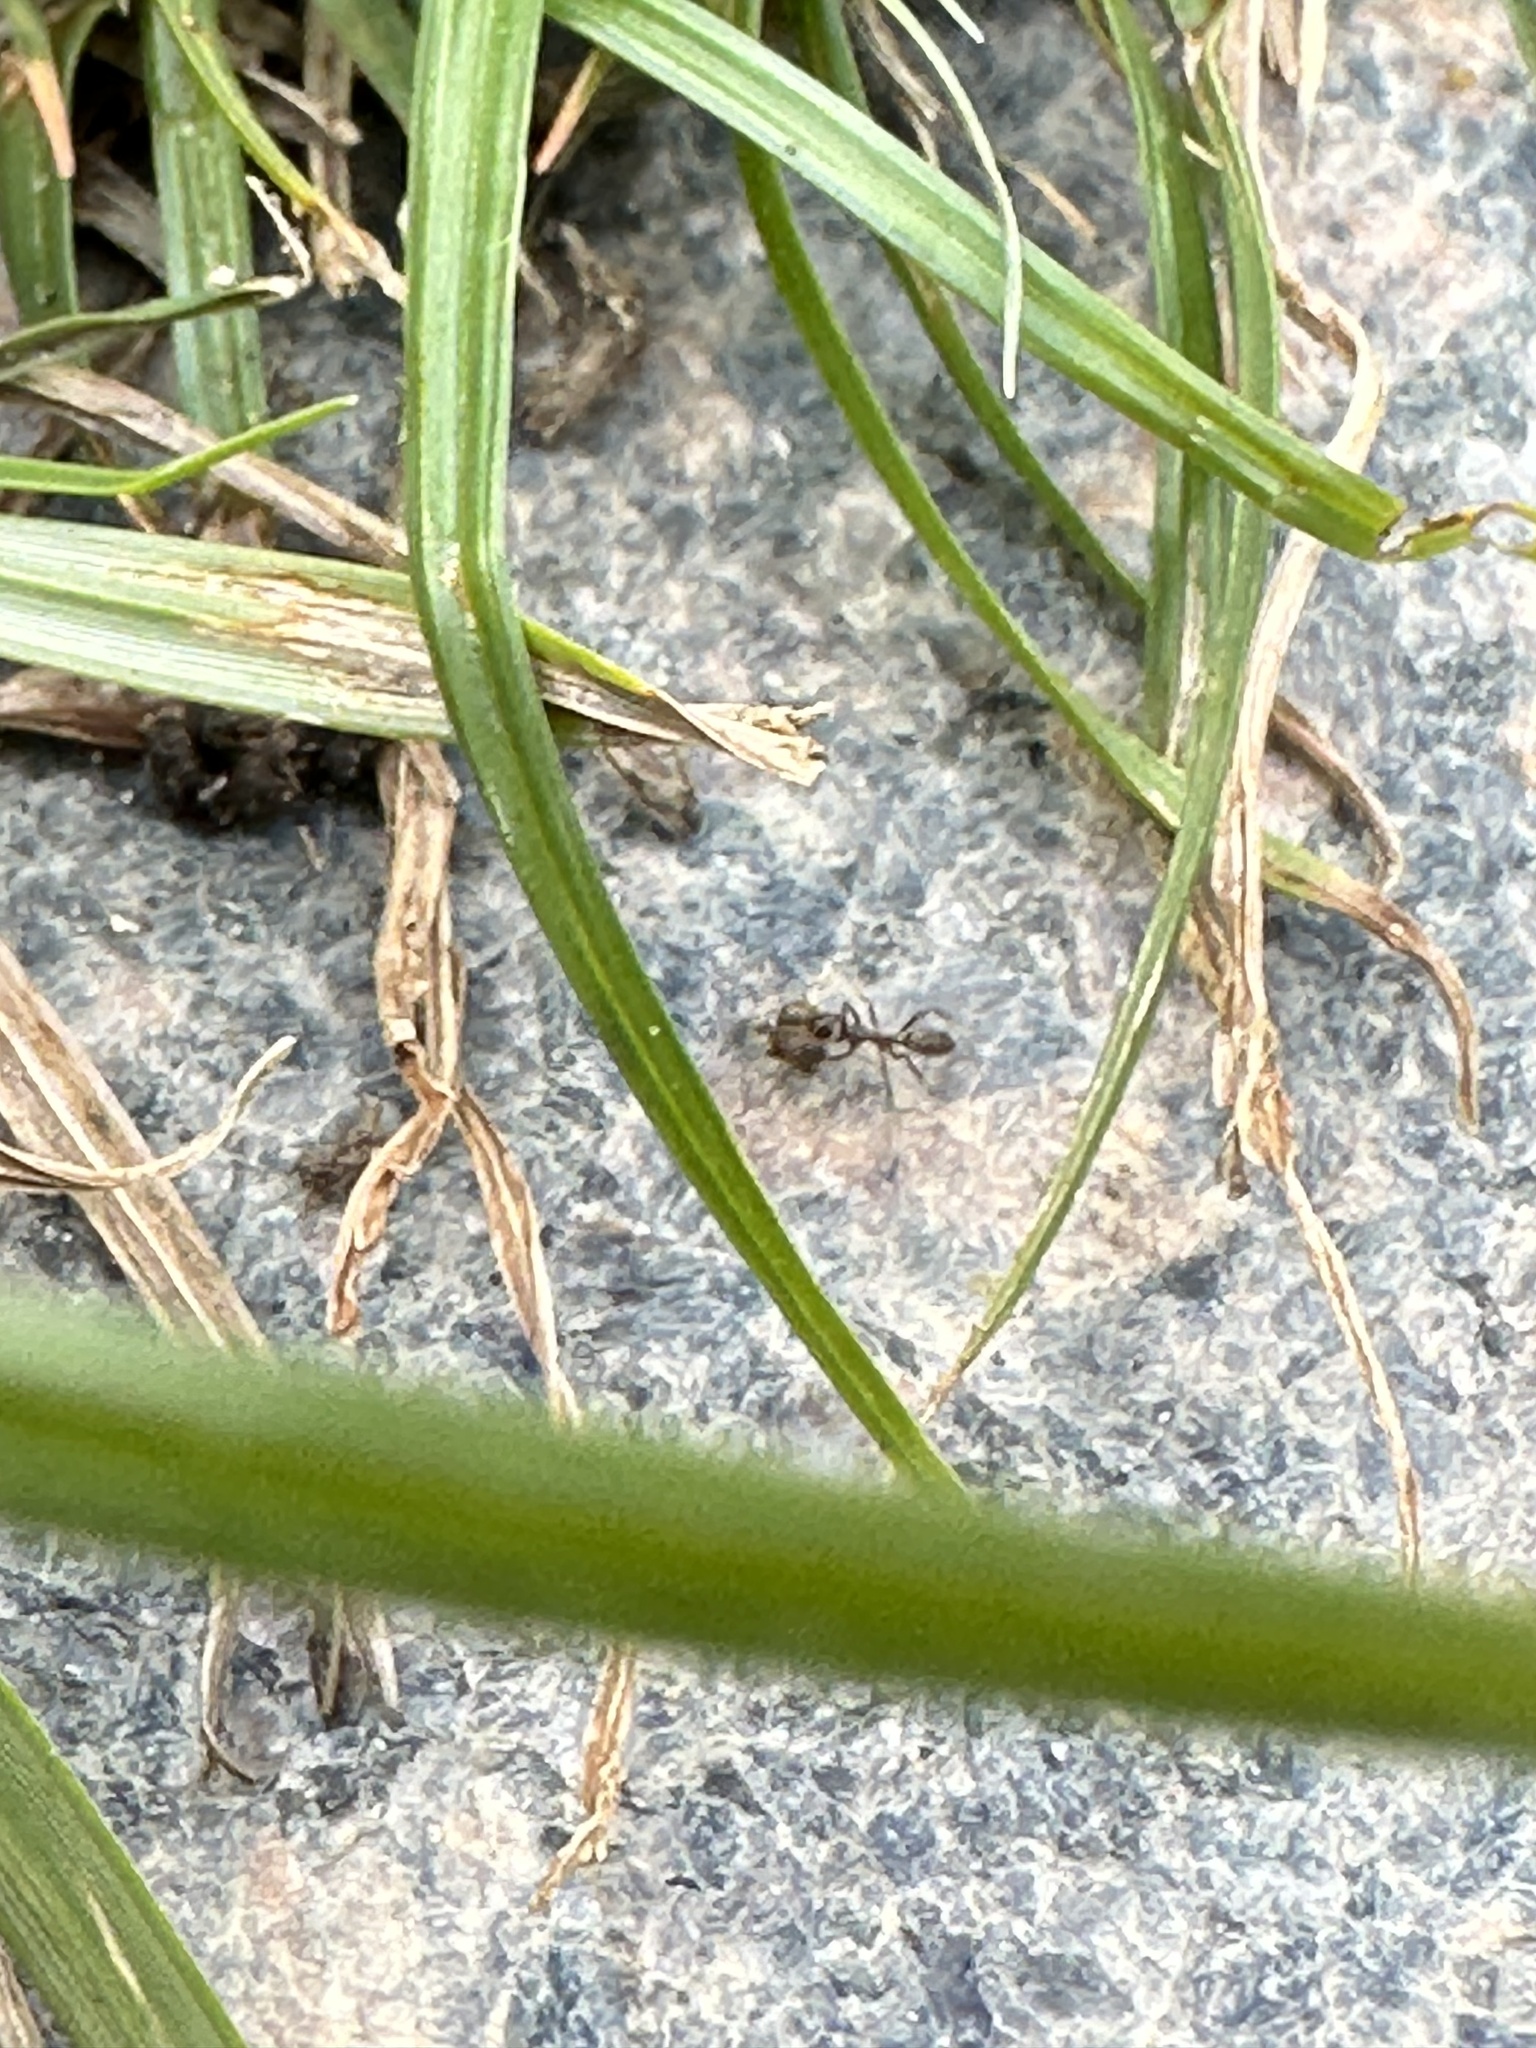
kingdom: Animalia
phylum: Arthropoda
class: Insecta
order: Hymenoptera
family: Formicidae
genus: Linepithema
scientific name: Linepithema humile
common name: Argentine ant
